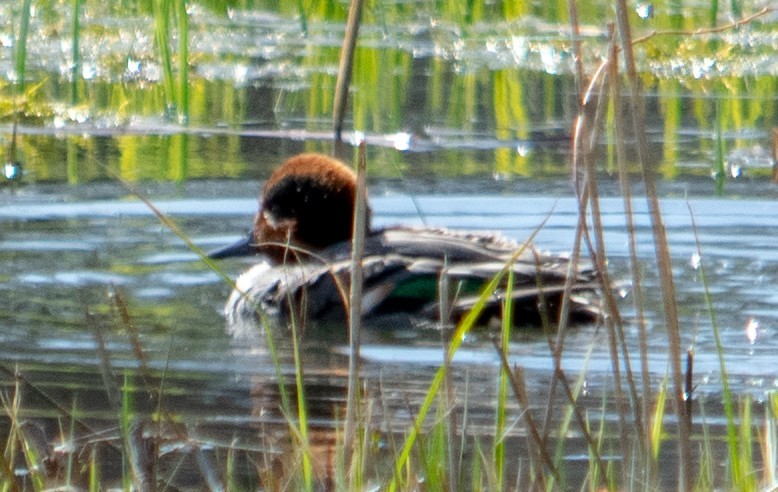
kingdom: Animalia
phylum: Chordata
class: Aves
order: Anseriformes
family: Anatidae
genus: Anas
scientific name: Anas crecca
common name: Eurasian teal
